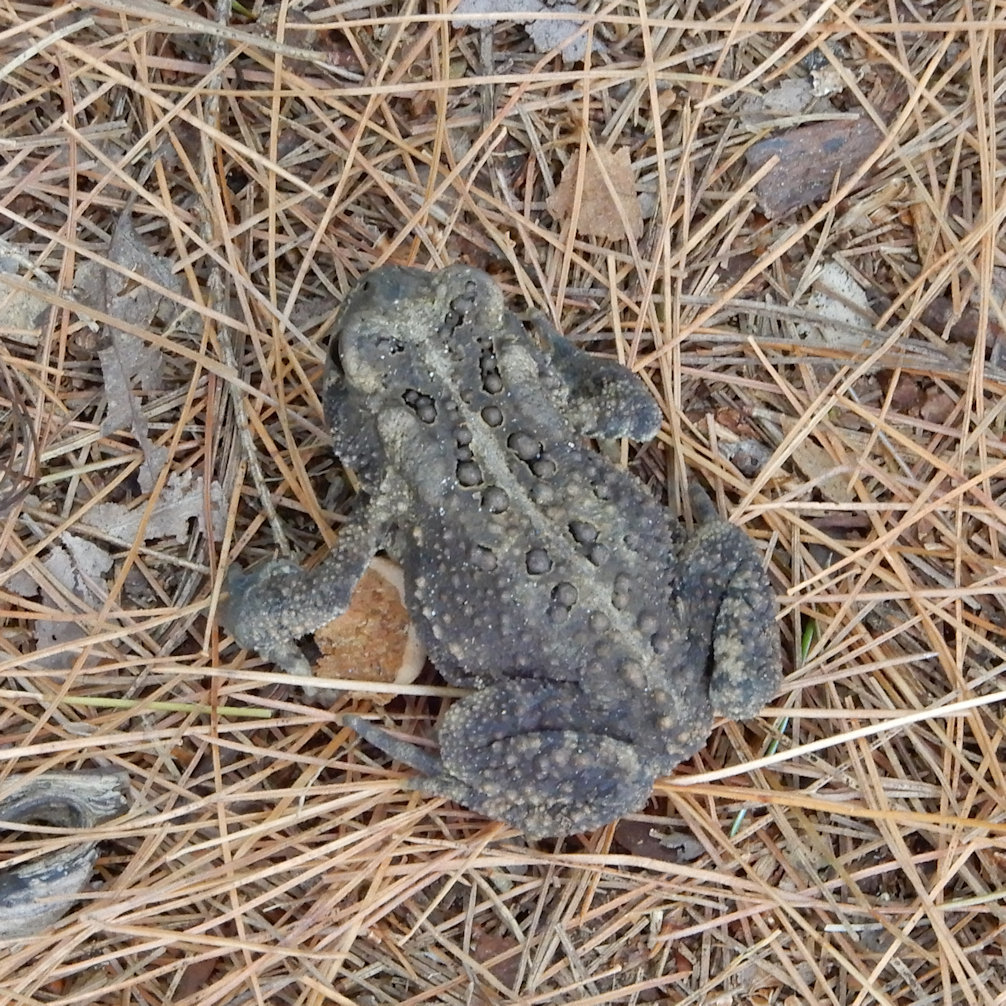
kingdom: Animalia
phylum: Chordata
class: Amphibia
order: Anura
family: Bufonidae
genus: Anaxyrus
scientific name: Anaxyrus americanus
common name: American toad
